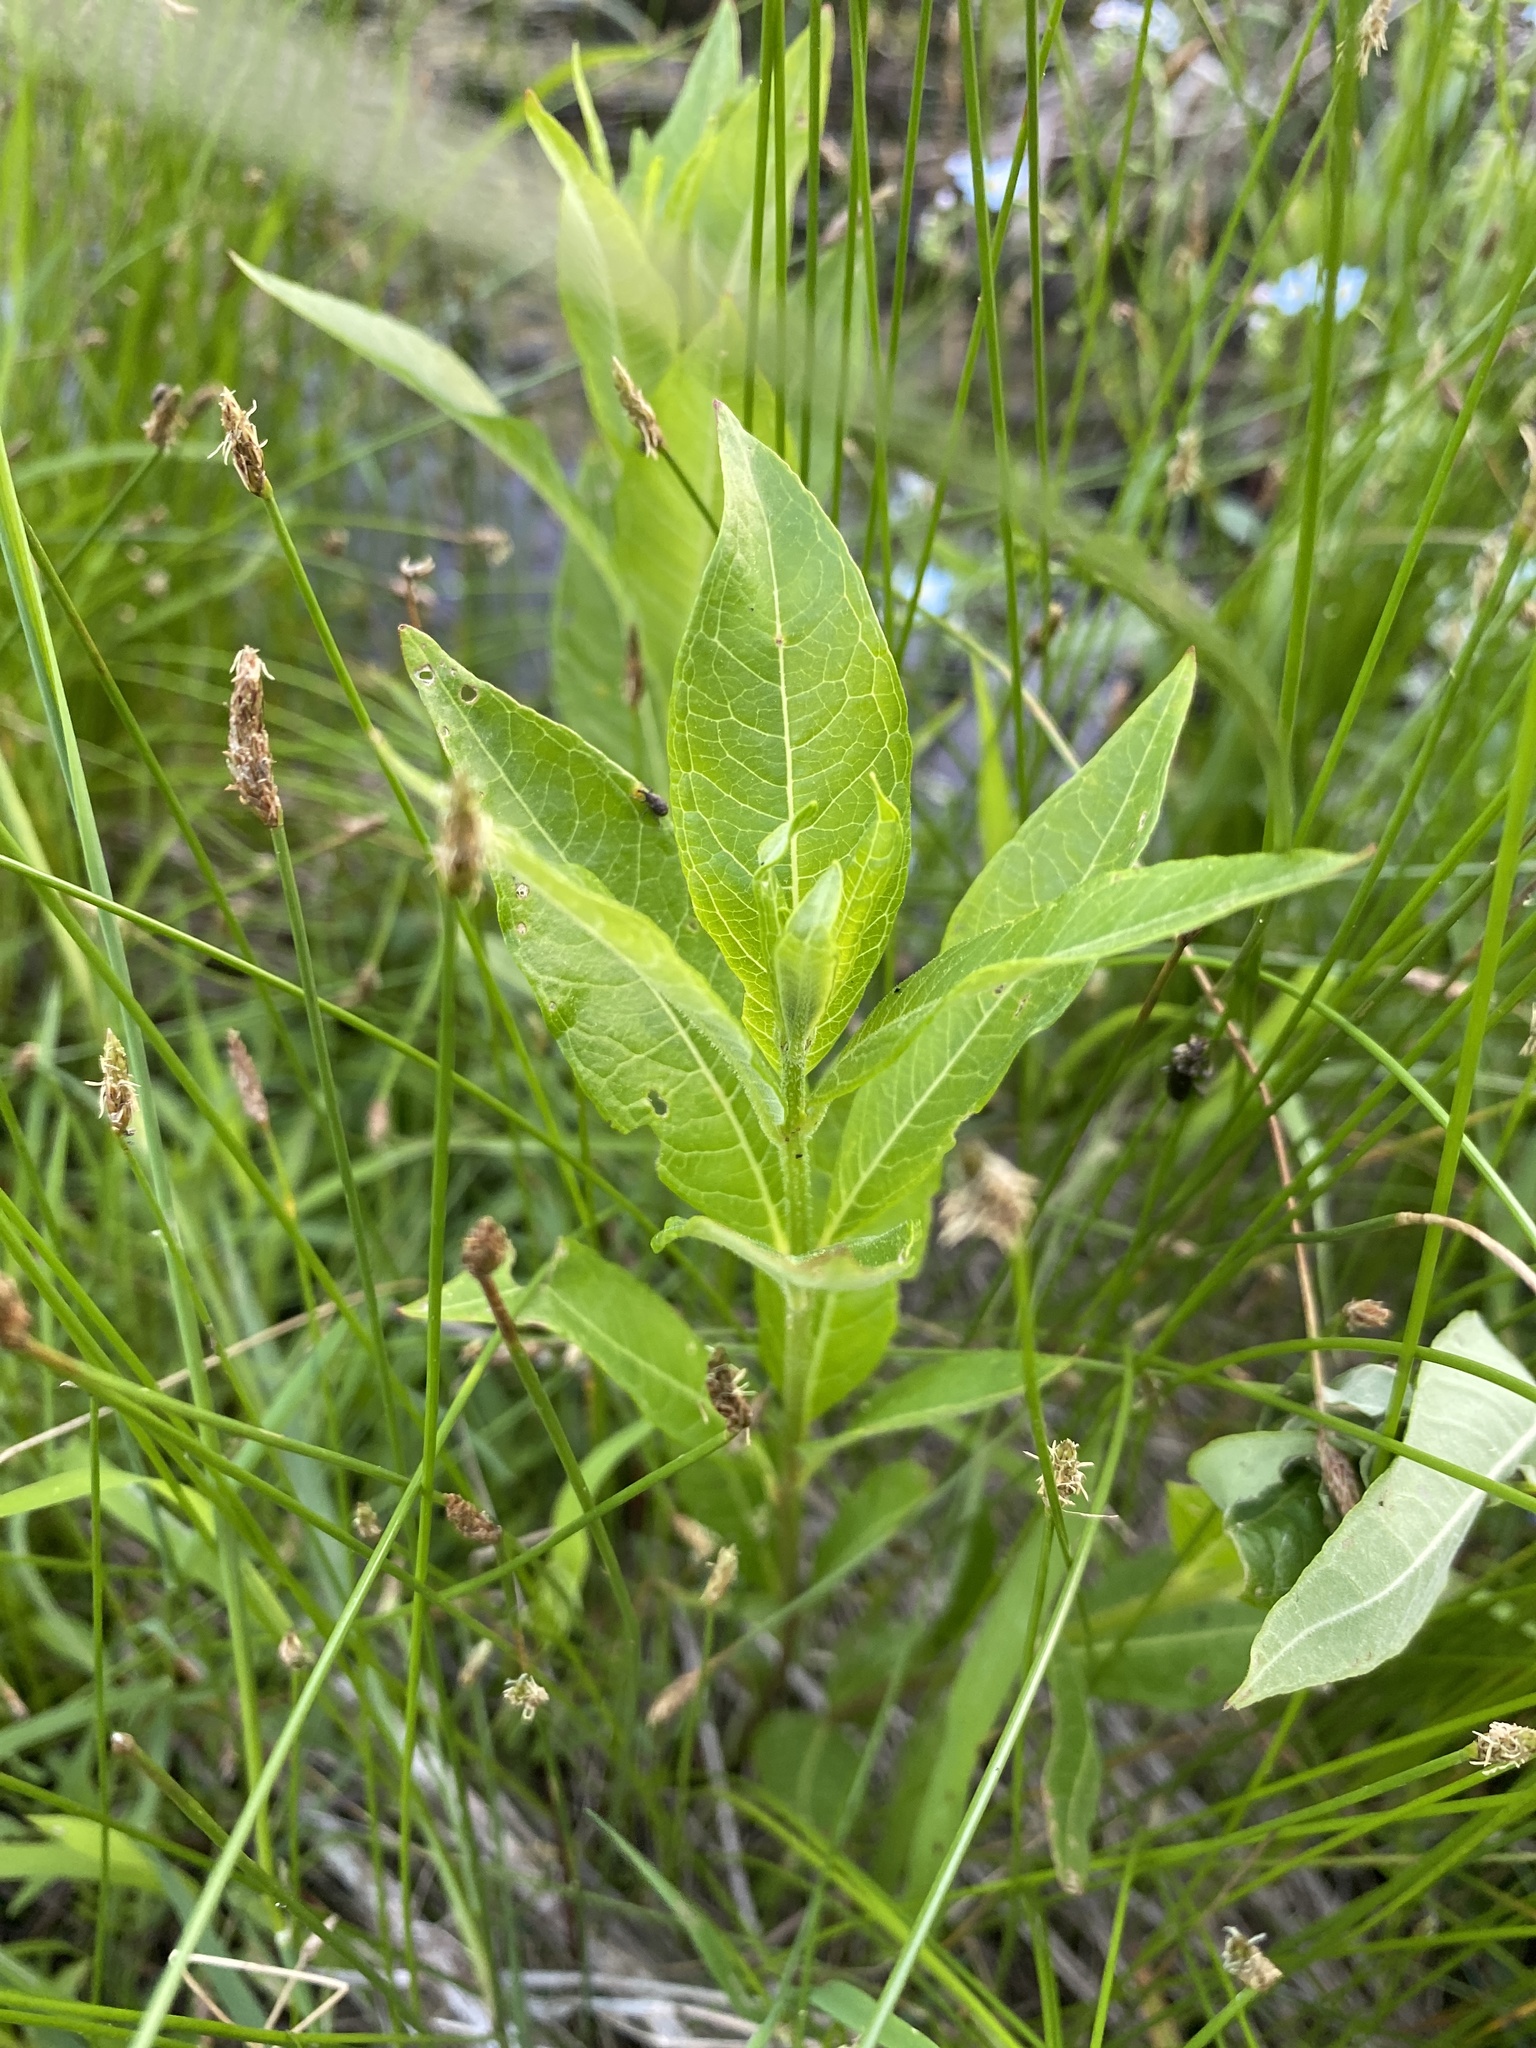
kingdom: Plantae
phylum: Tracheophyta
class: Magnoliopsida
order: Myrtales
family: Lythraceae
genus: Decodon
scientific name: Decodon verticillatus
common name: Hairy swamp loosestrife
